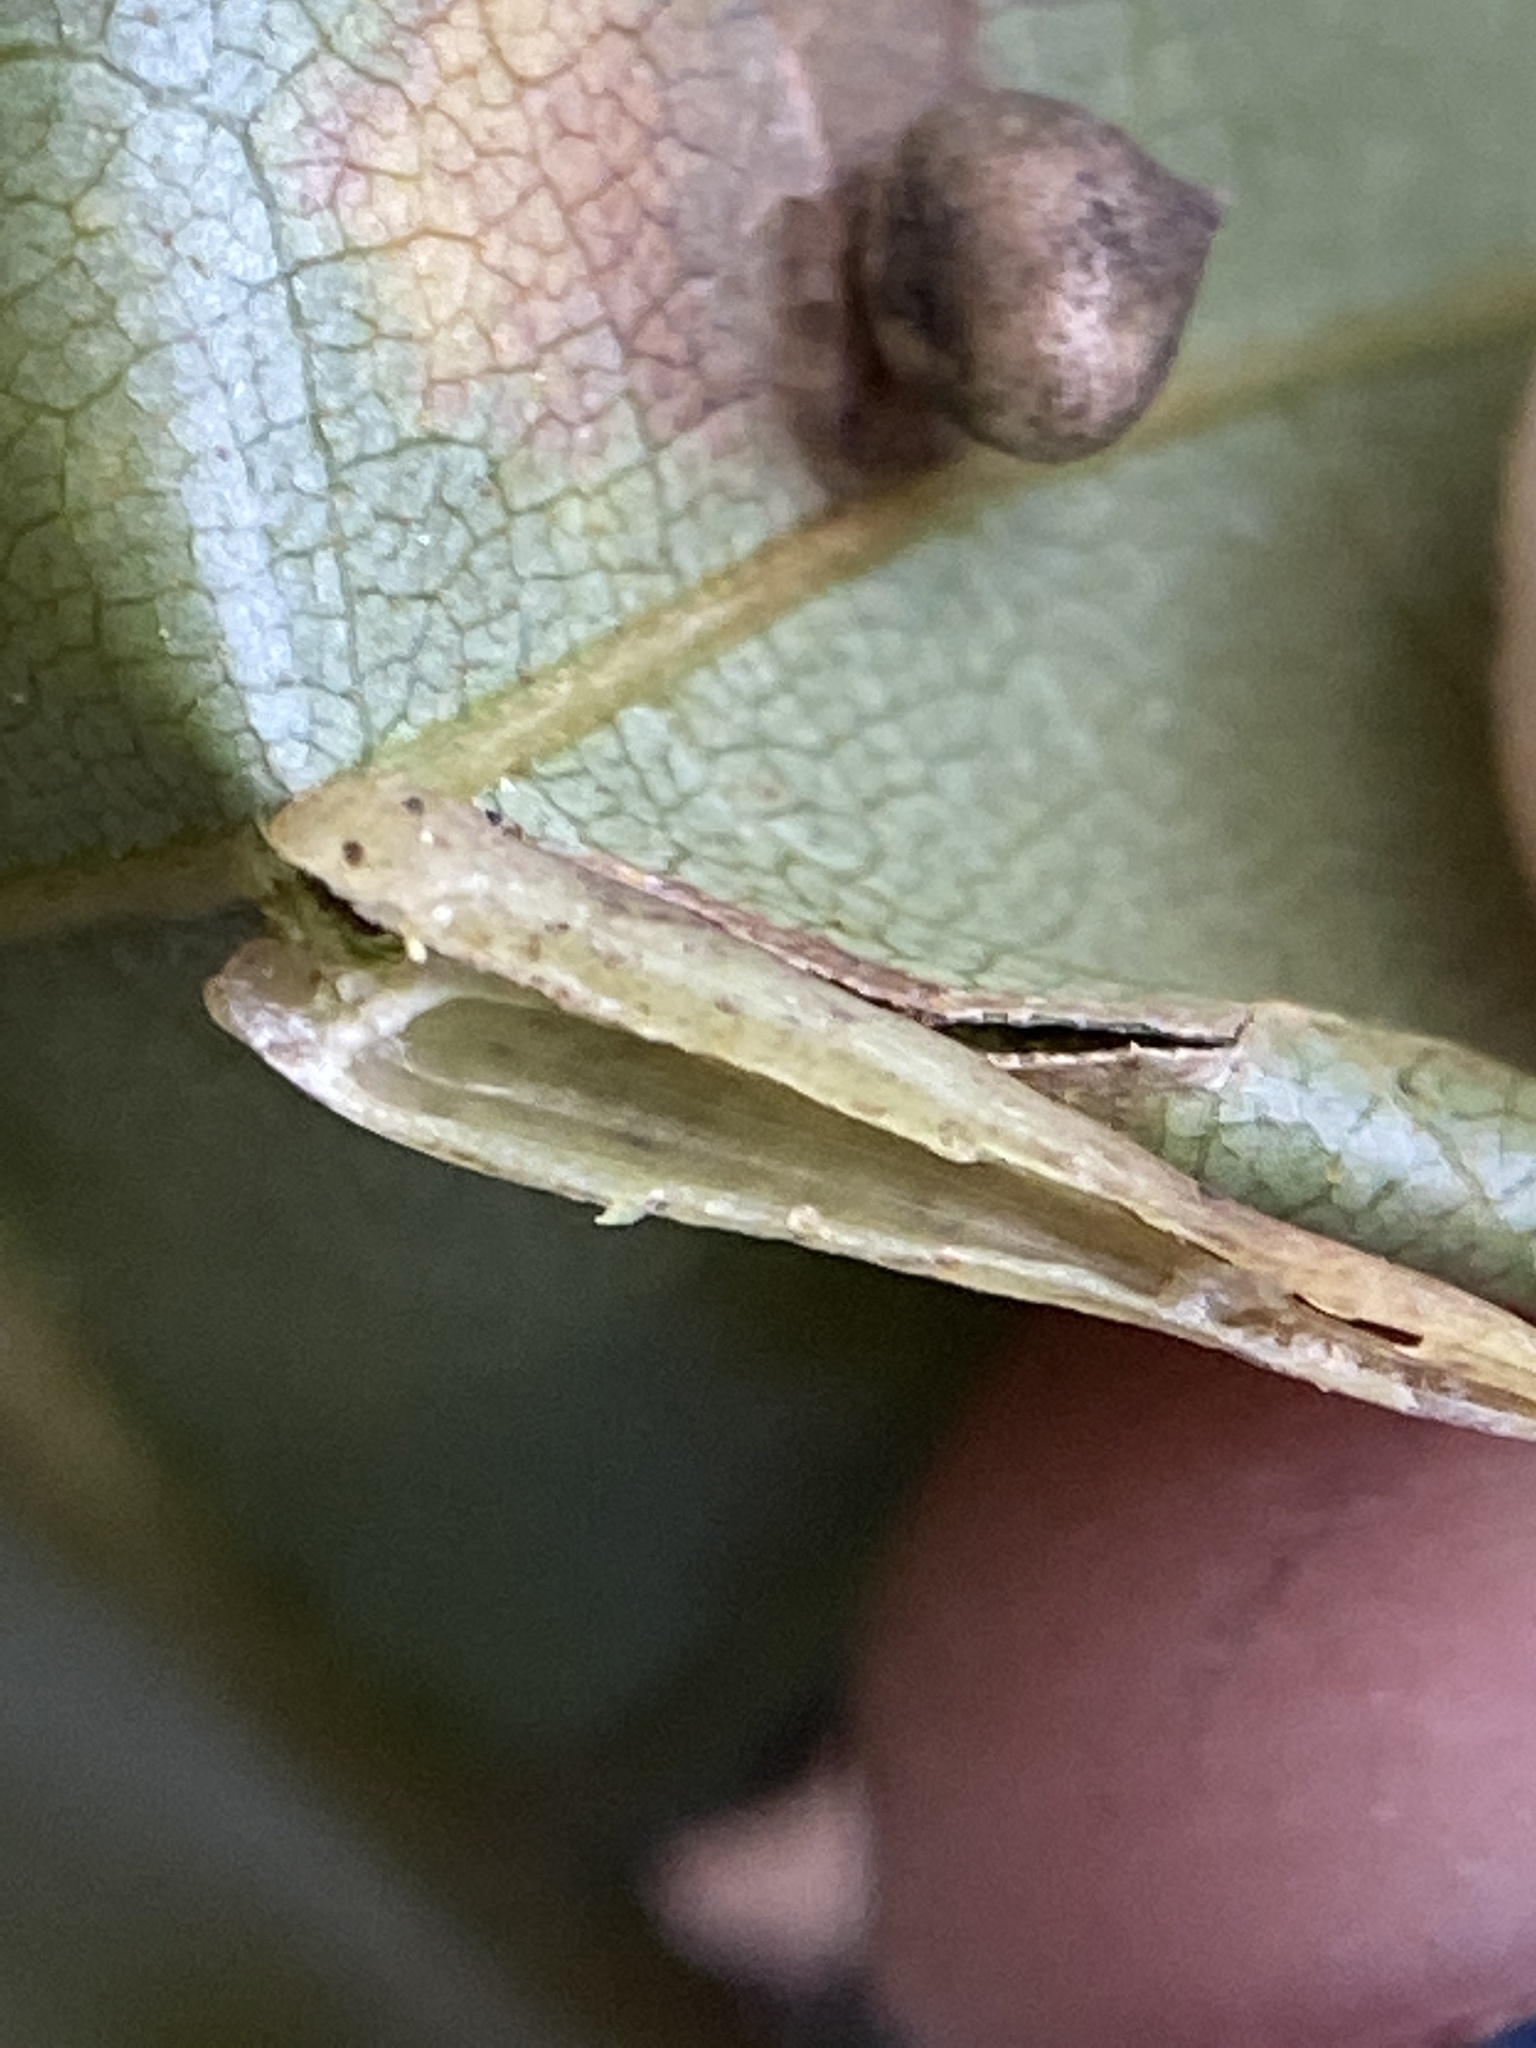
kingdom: Animalia
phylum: Arthropoda
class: Insecta
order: Diptera
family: Cecidomyiidae
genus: Caryomyia
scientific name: Caryomyia
